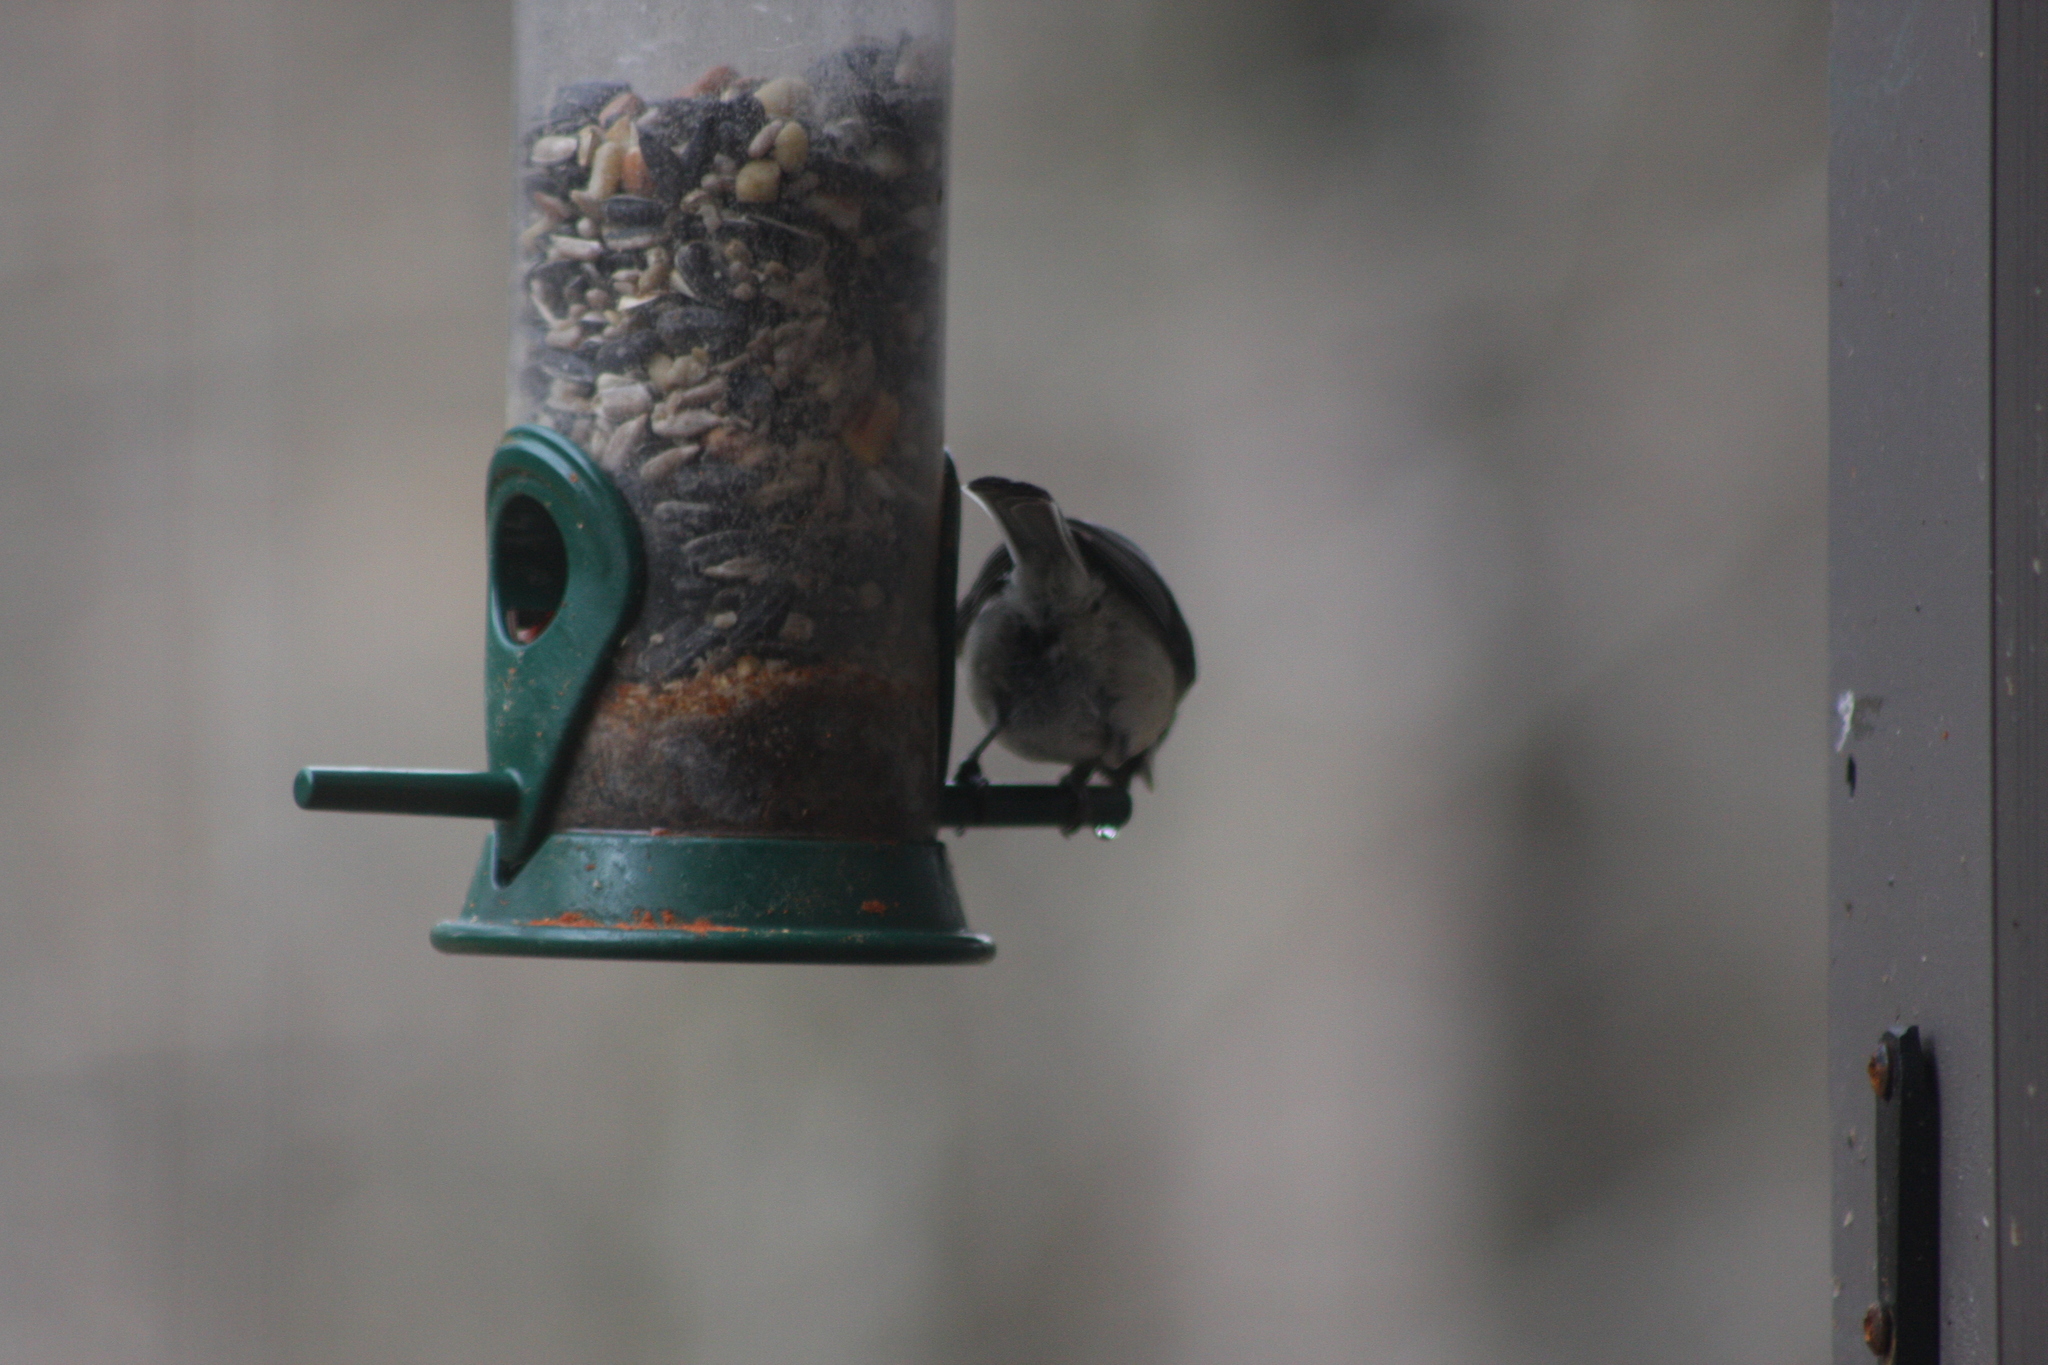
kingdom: Animalia
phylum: Chordata
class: Aves
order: Passeriformes
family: Paridae
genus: Poecile
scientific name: Poecile atricapillus
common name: Black-capped chickadee
